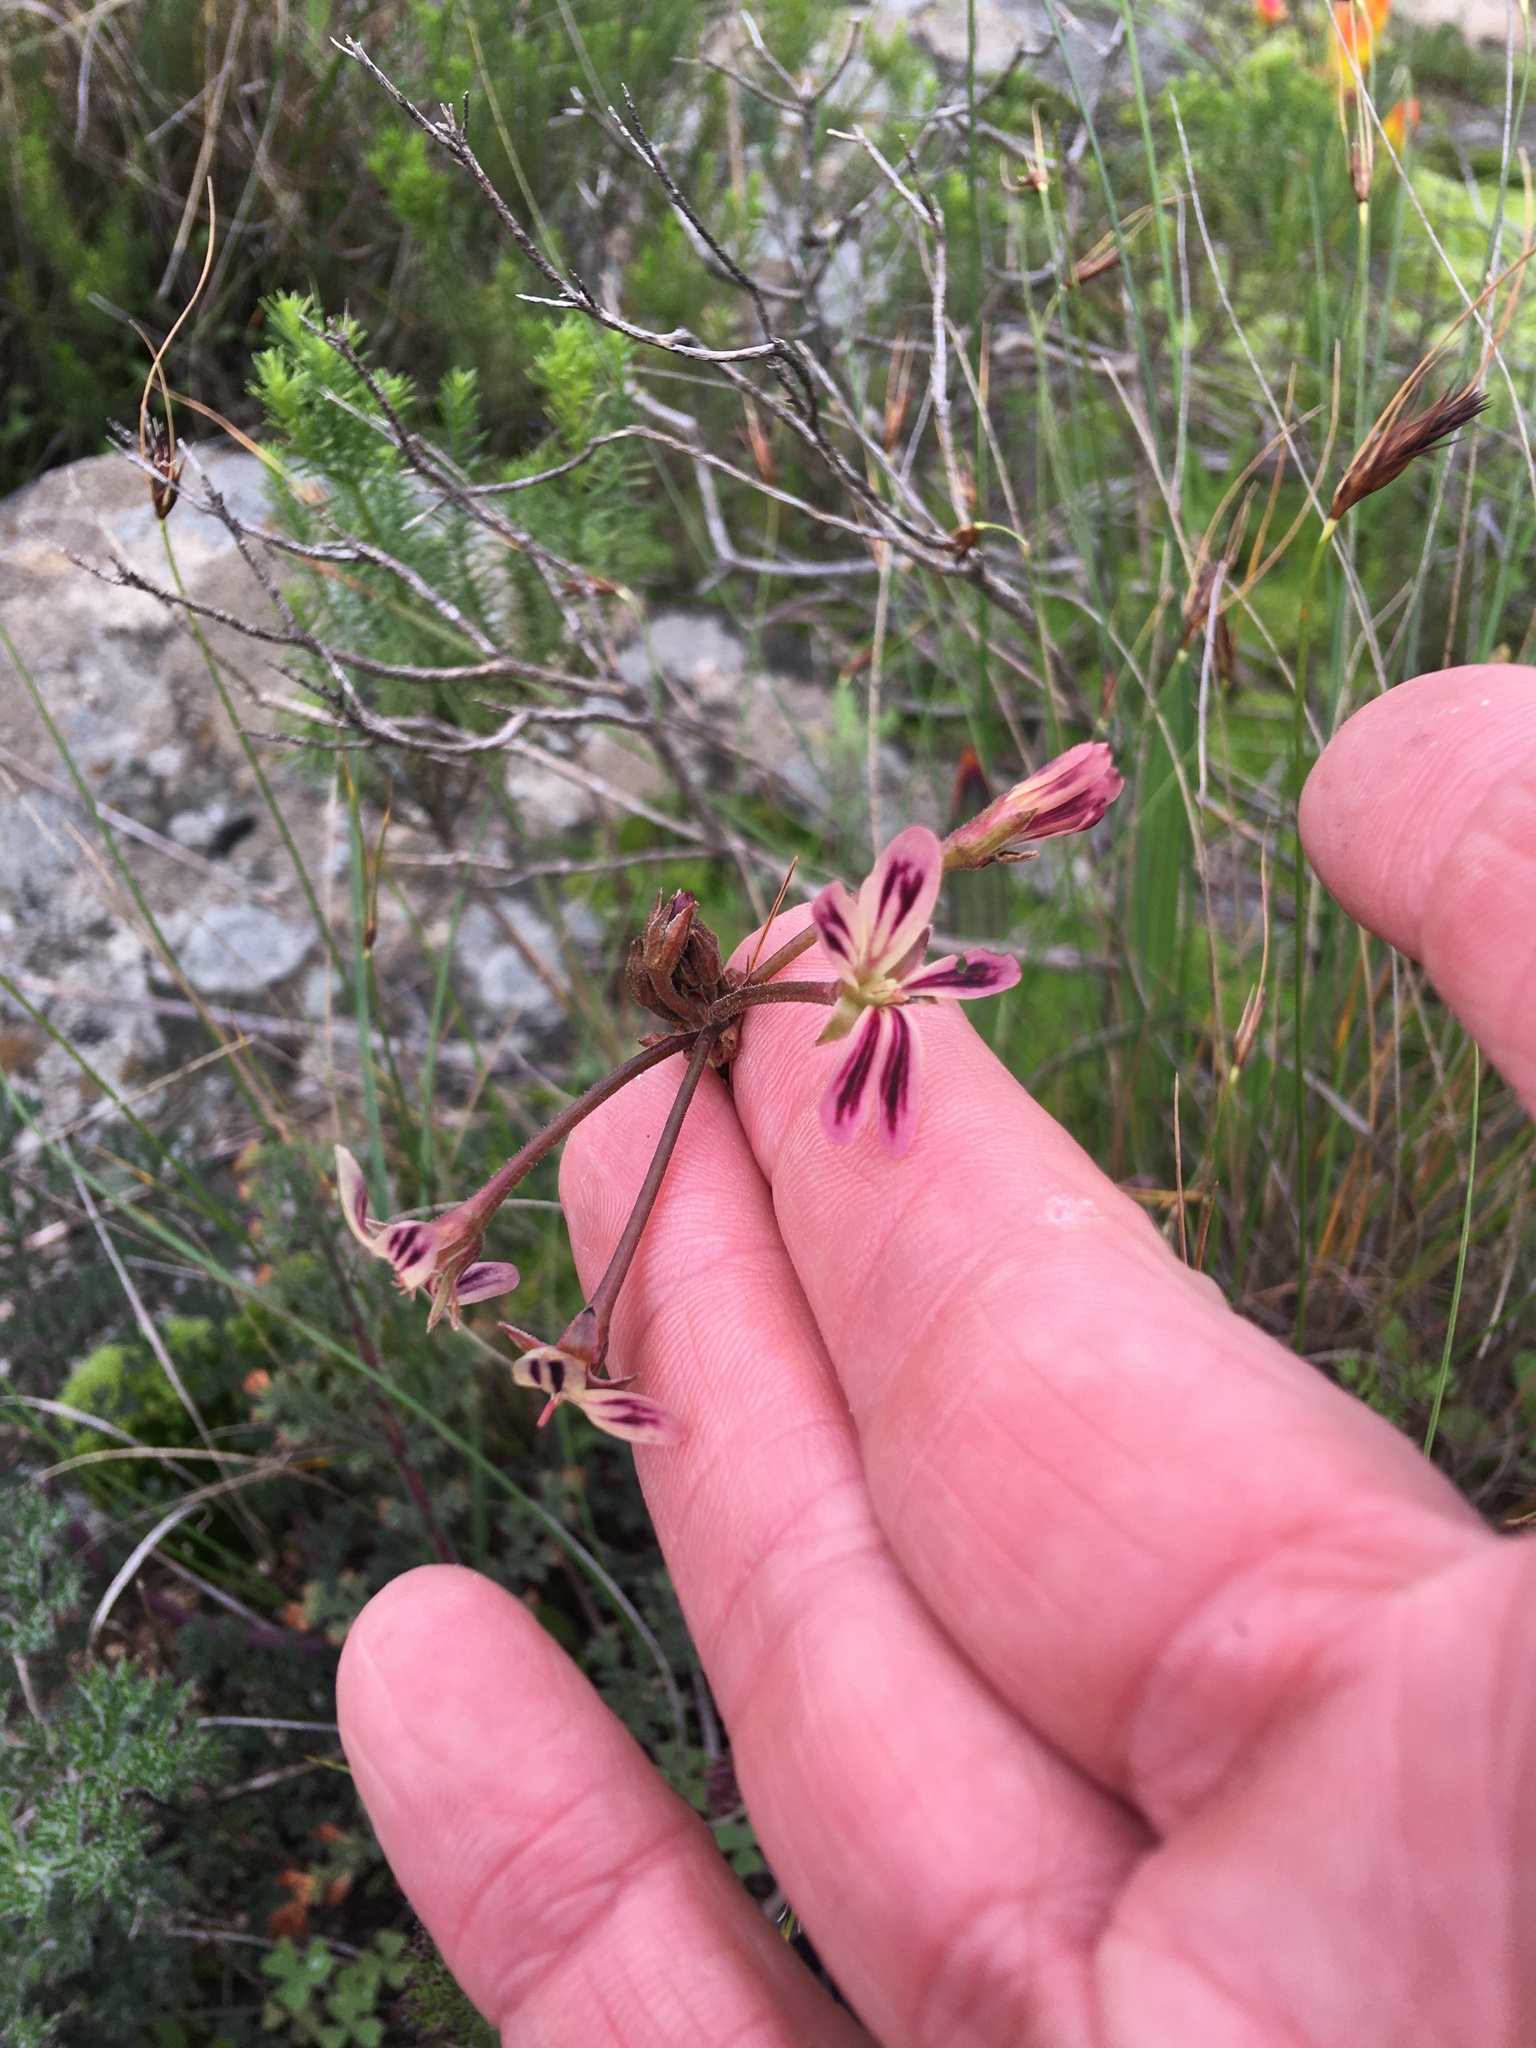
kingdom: Plantae
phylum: Tracheophyta
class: Magnoliopsida
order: Geraniales
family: Geraniaceae
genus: Pelargonium
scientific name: Pelargonium triste
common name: Night-scent pelargonium
